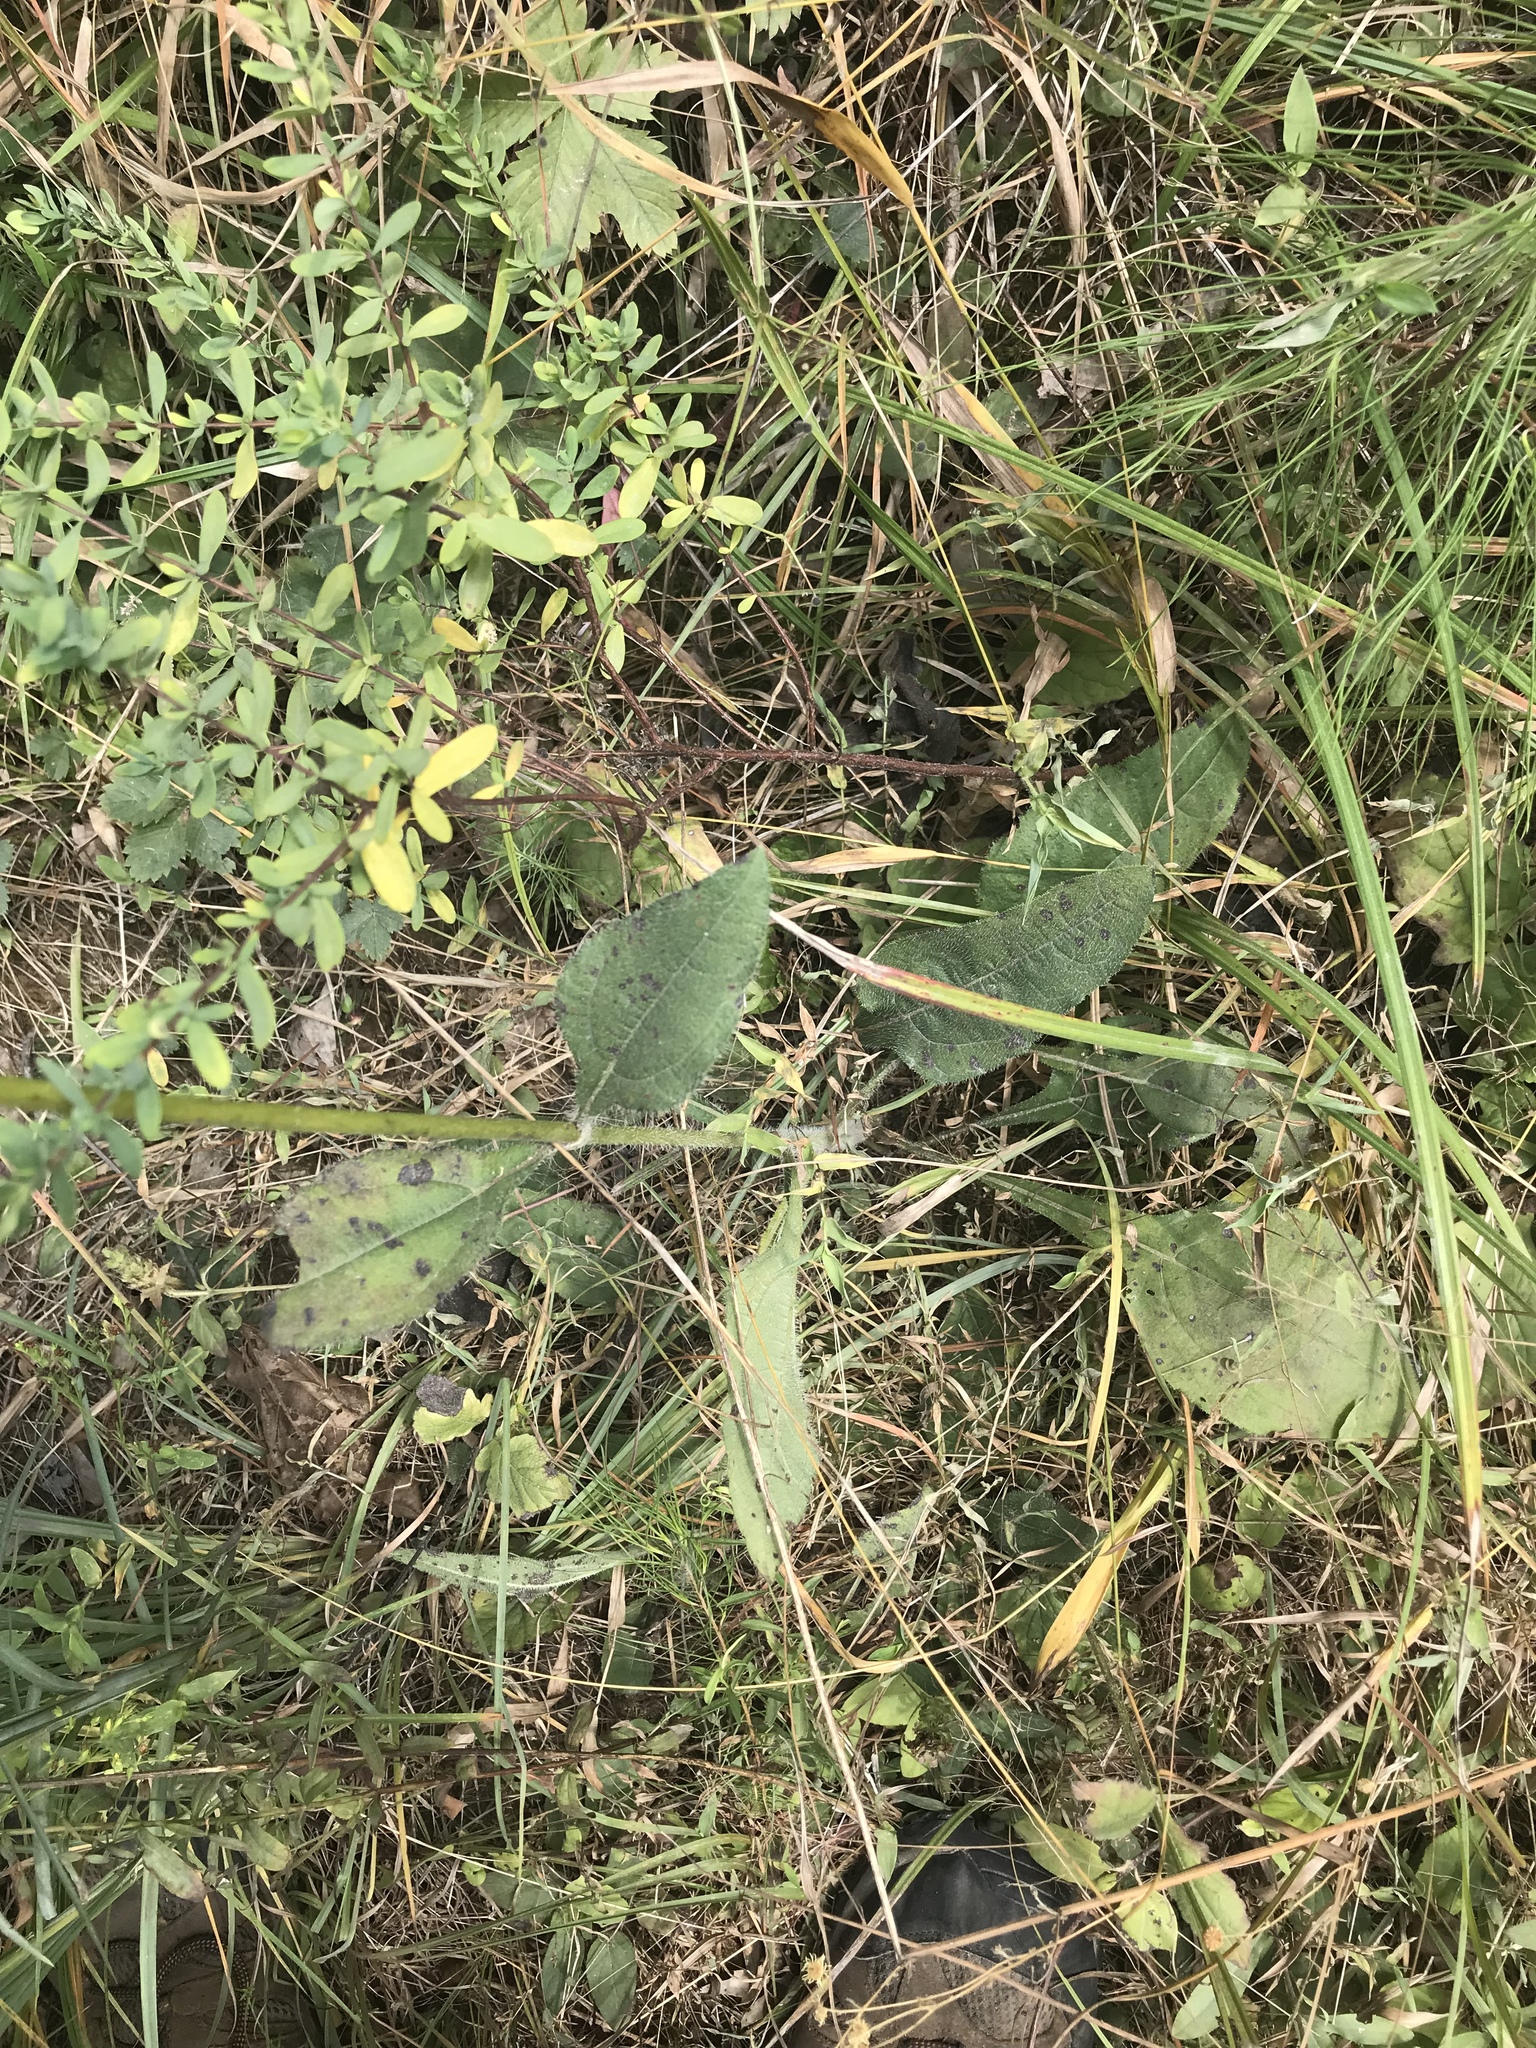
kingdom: Plantae
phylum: Tracheophyta
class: Magnoliopsida
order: Asterales
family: Asteraceae
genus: Helianthus
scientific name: Helianthus atrorubens
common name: Dark-eyed sunflower
